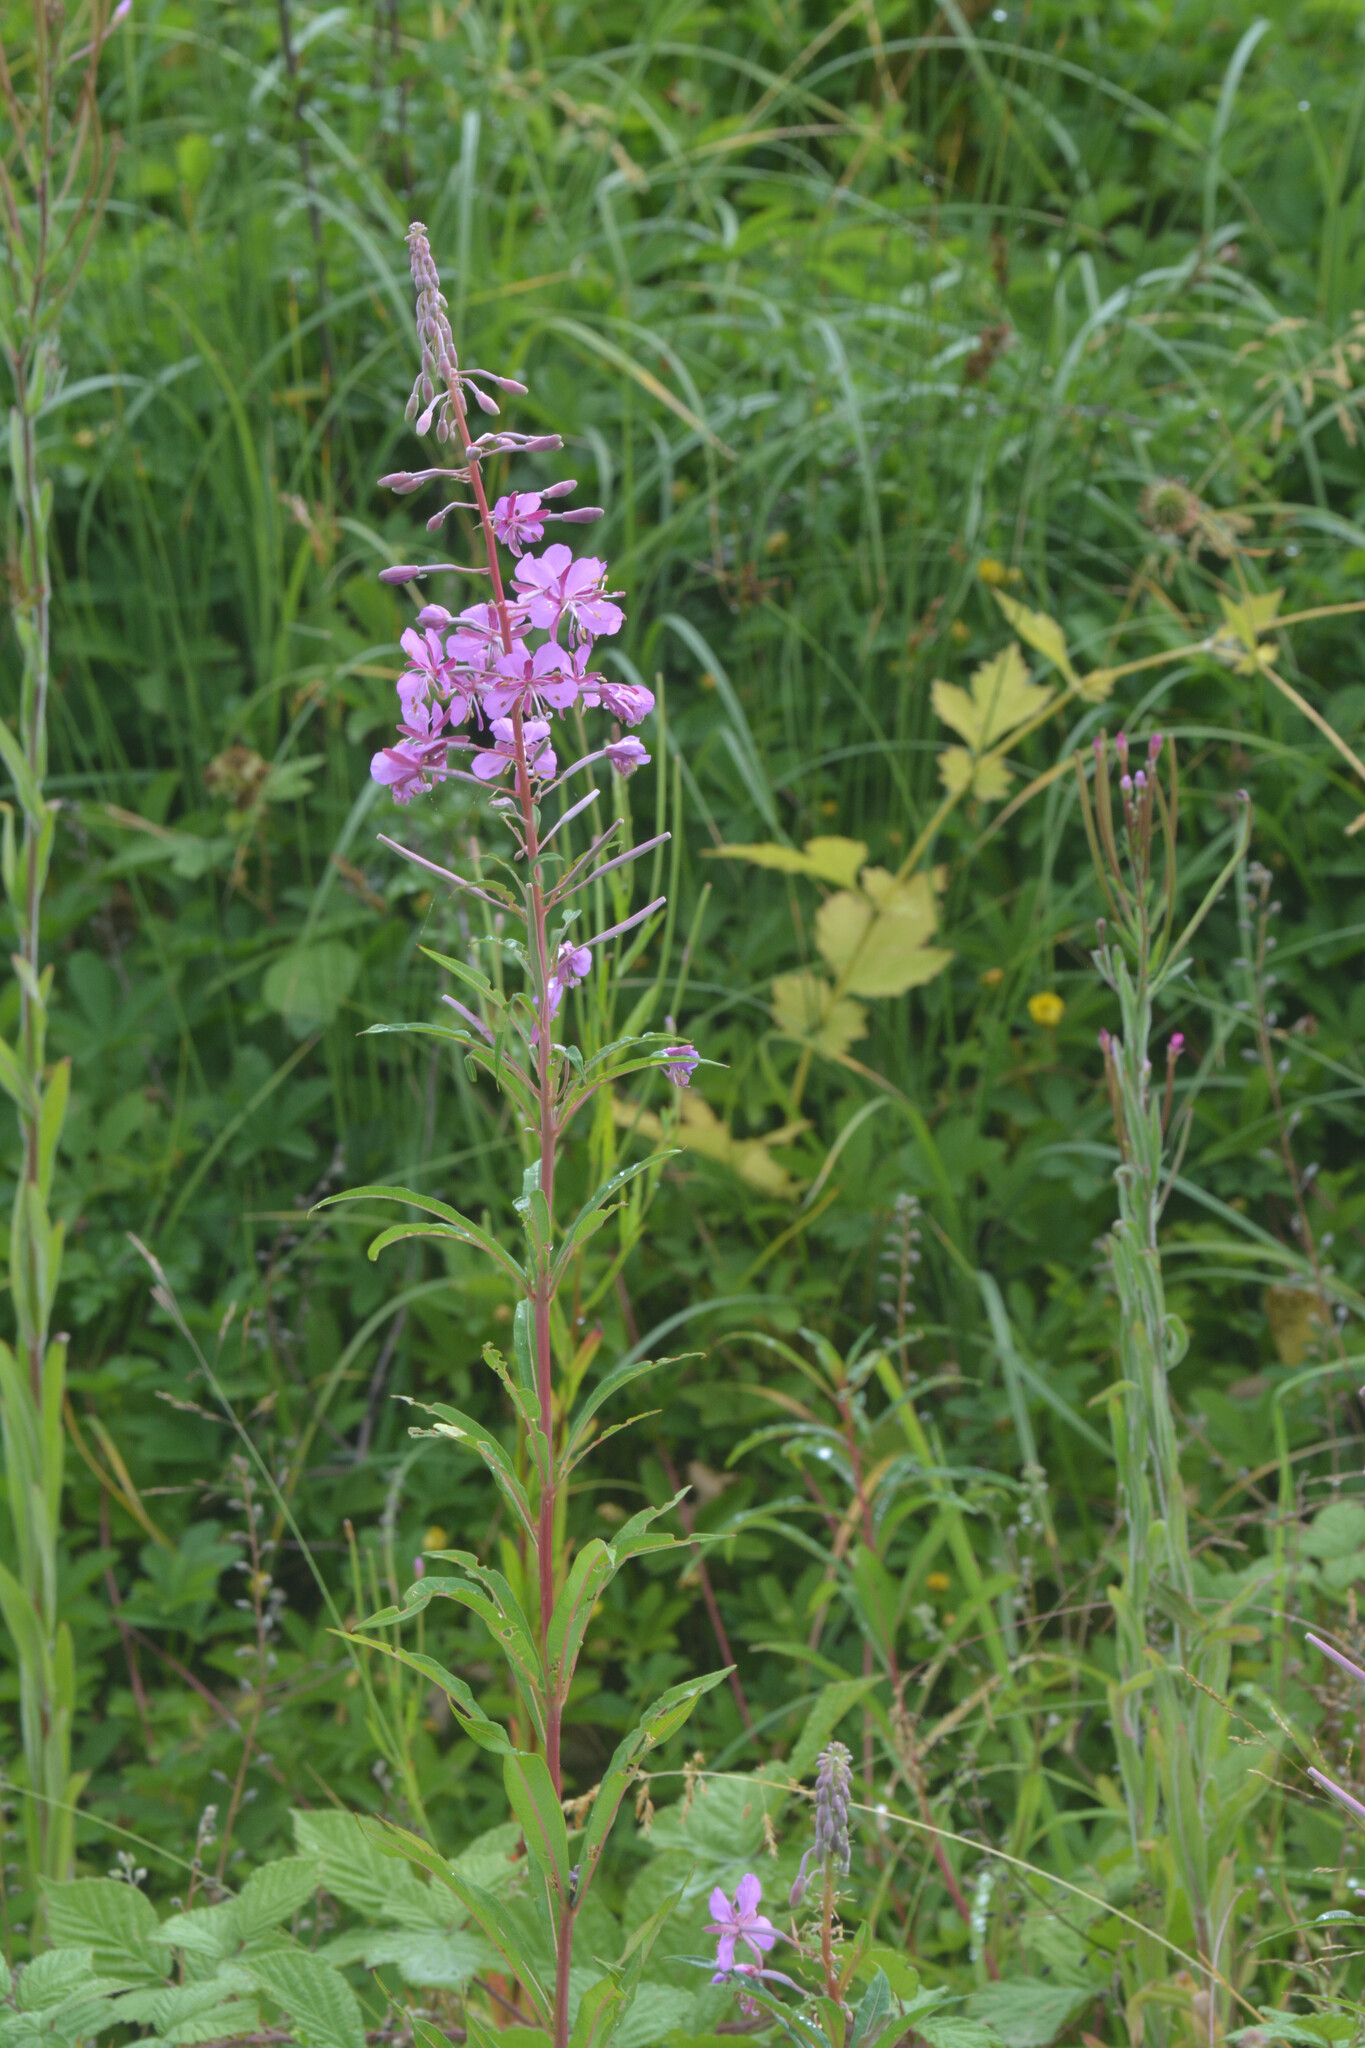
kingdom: Plantae
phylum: Tracheophyta
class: Magnoliopsida
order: Myrtales
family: Onagraceae
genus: Chamaenerion
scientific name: Chamaenerion angustifolium
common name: Fireweed
